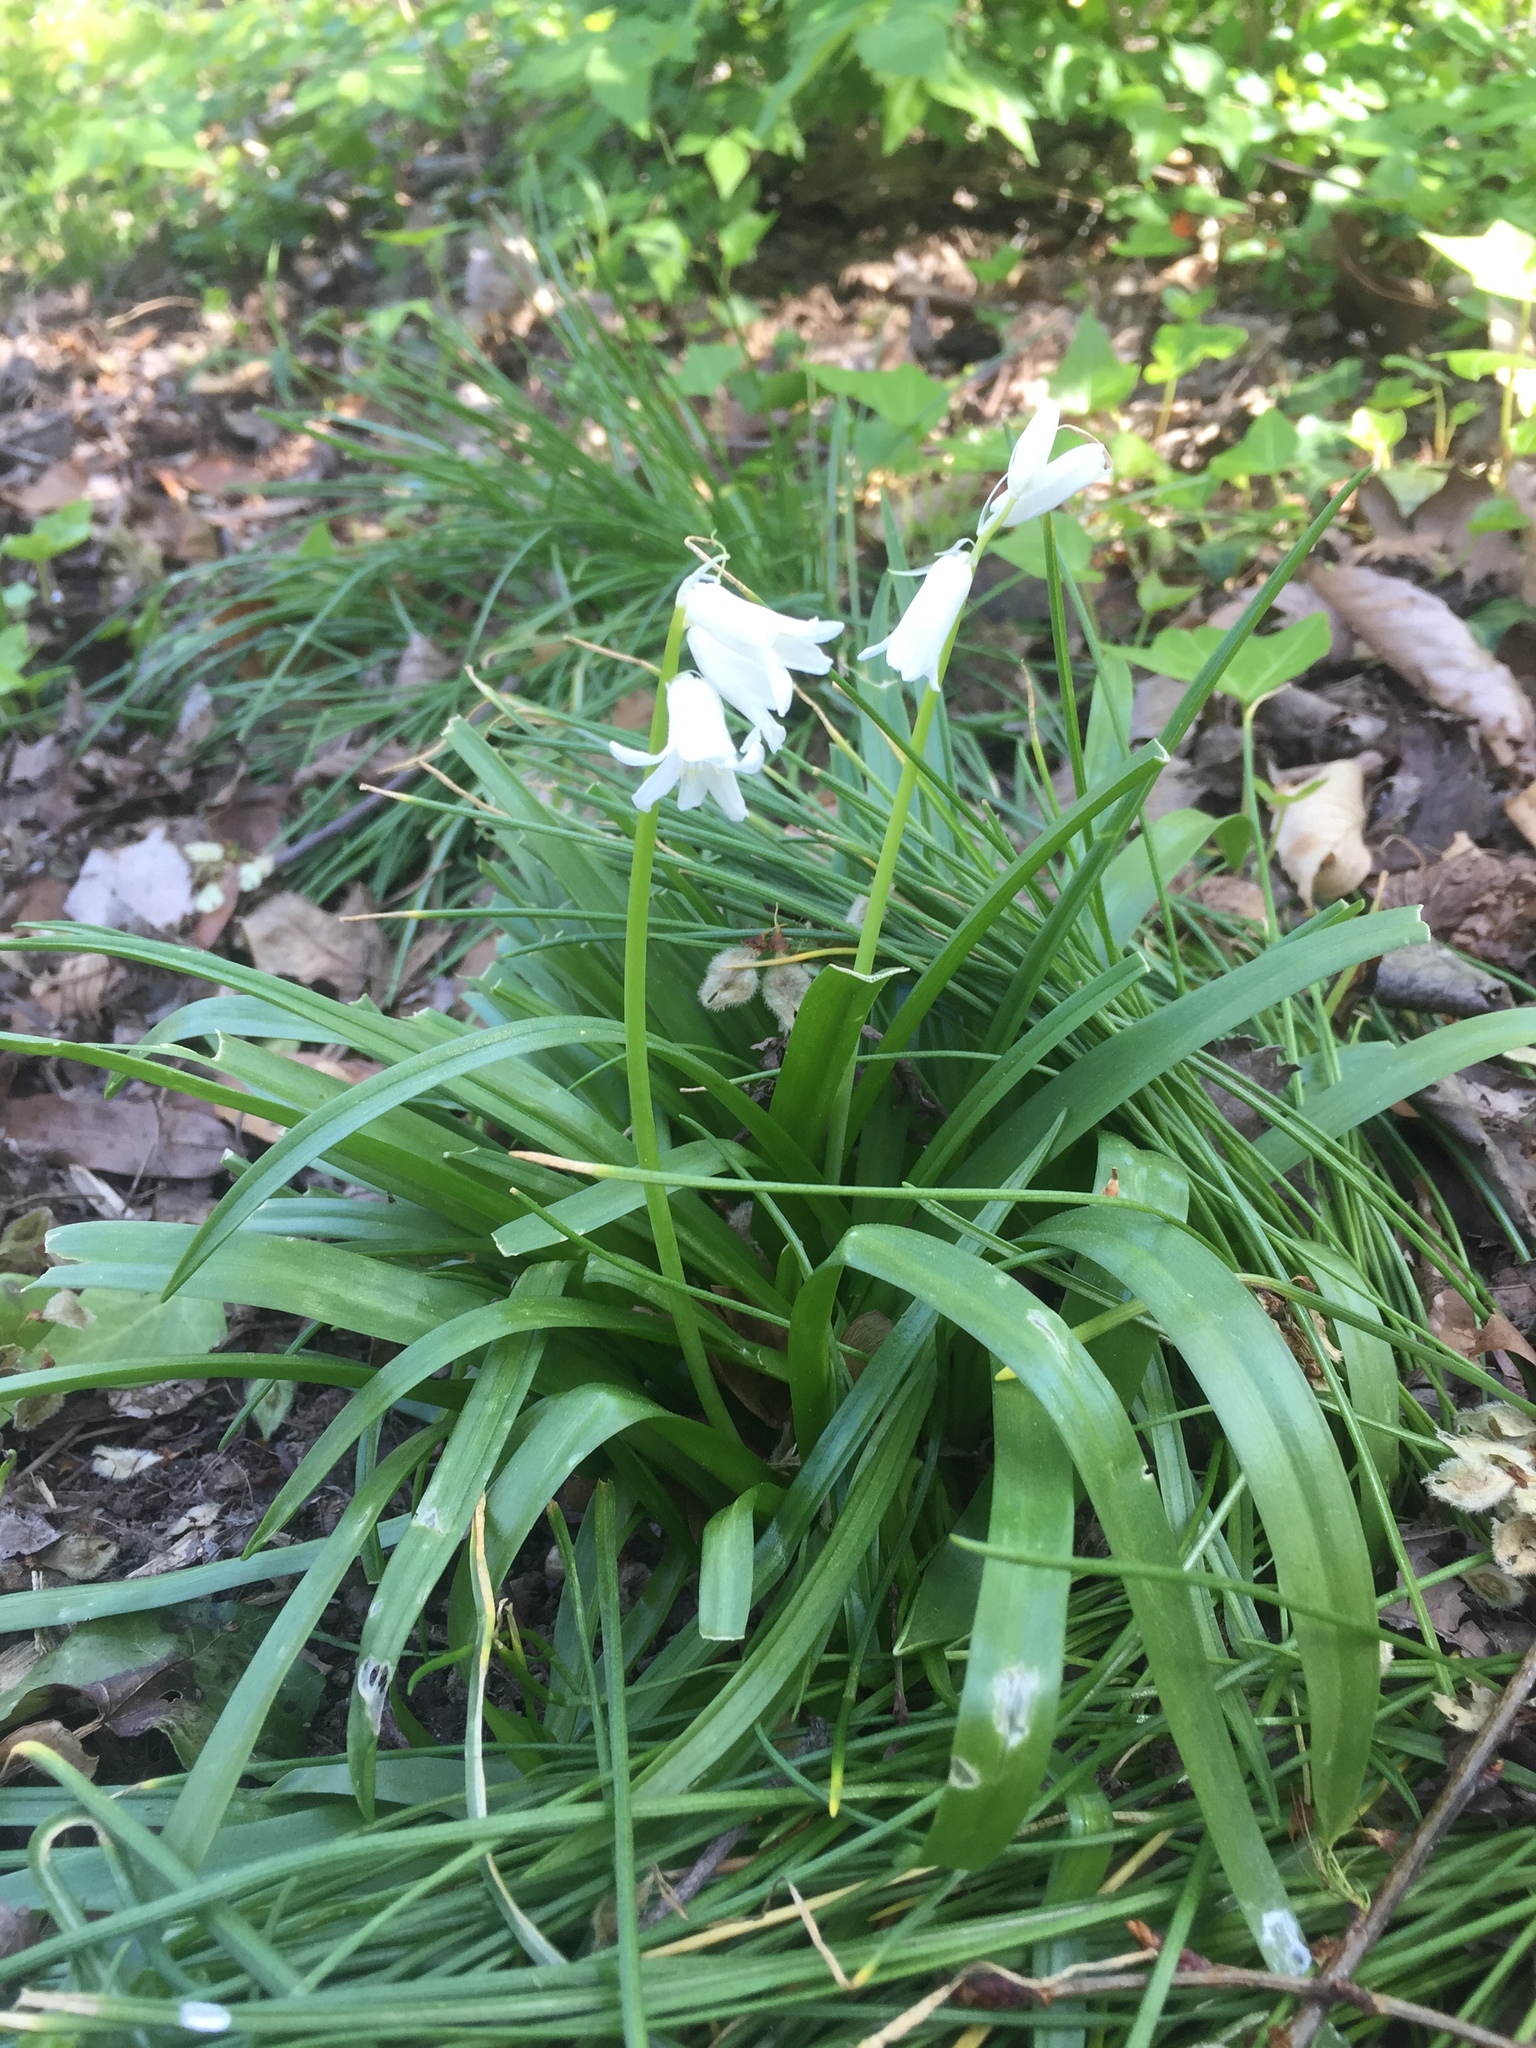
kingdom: Plantae
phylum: Tracheophyta
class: Liliopsida
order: Asparagales
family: Asparagaceae
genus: Hyacinthoides
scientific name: Hyacinthoides hispanica
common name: Spanish bluebell
